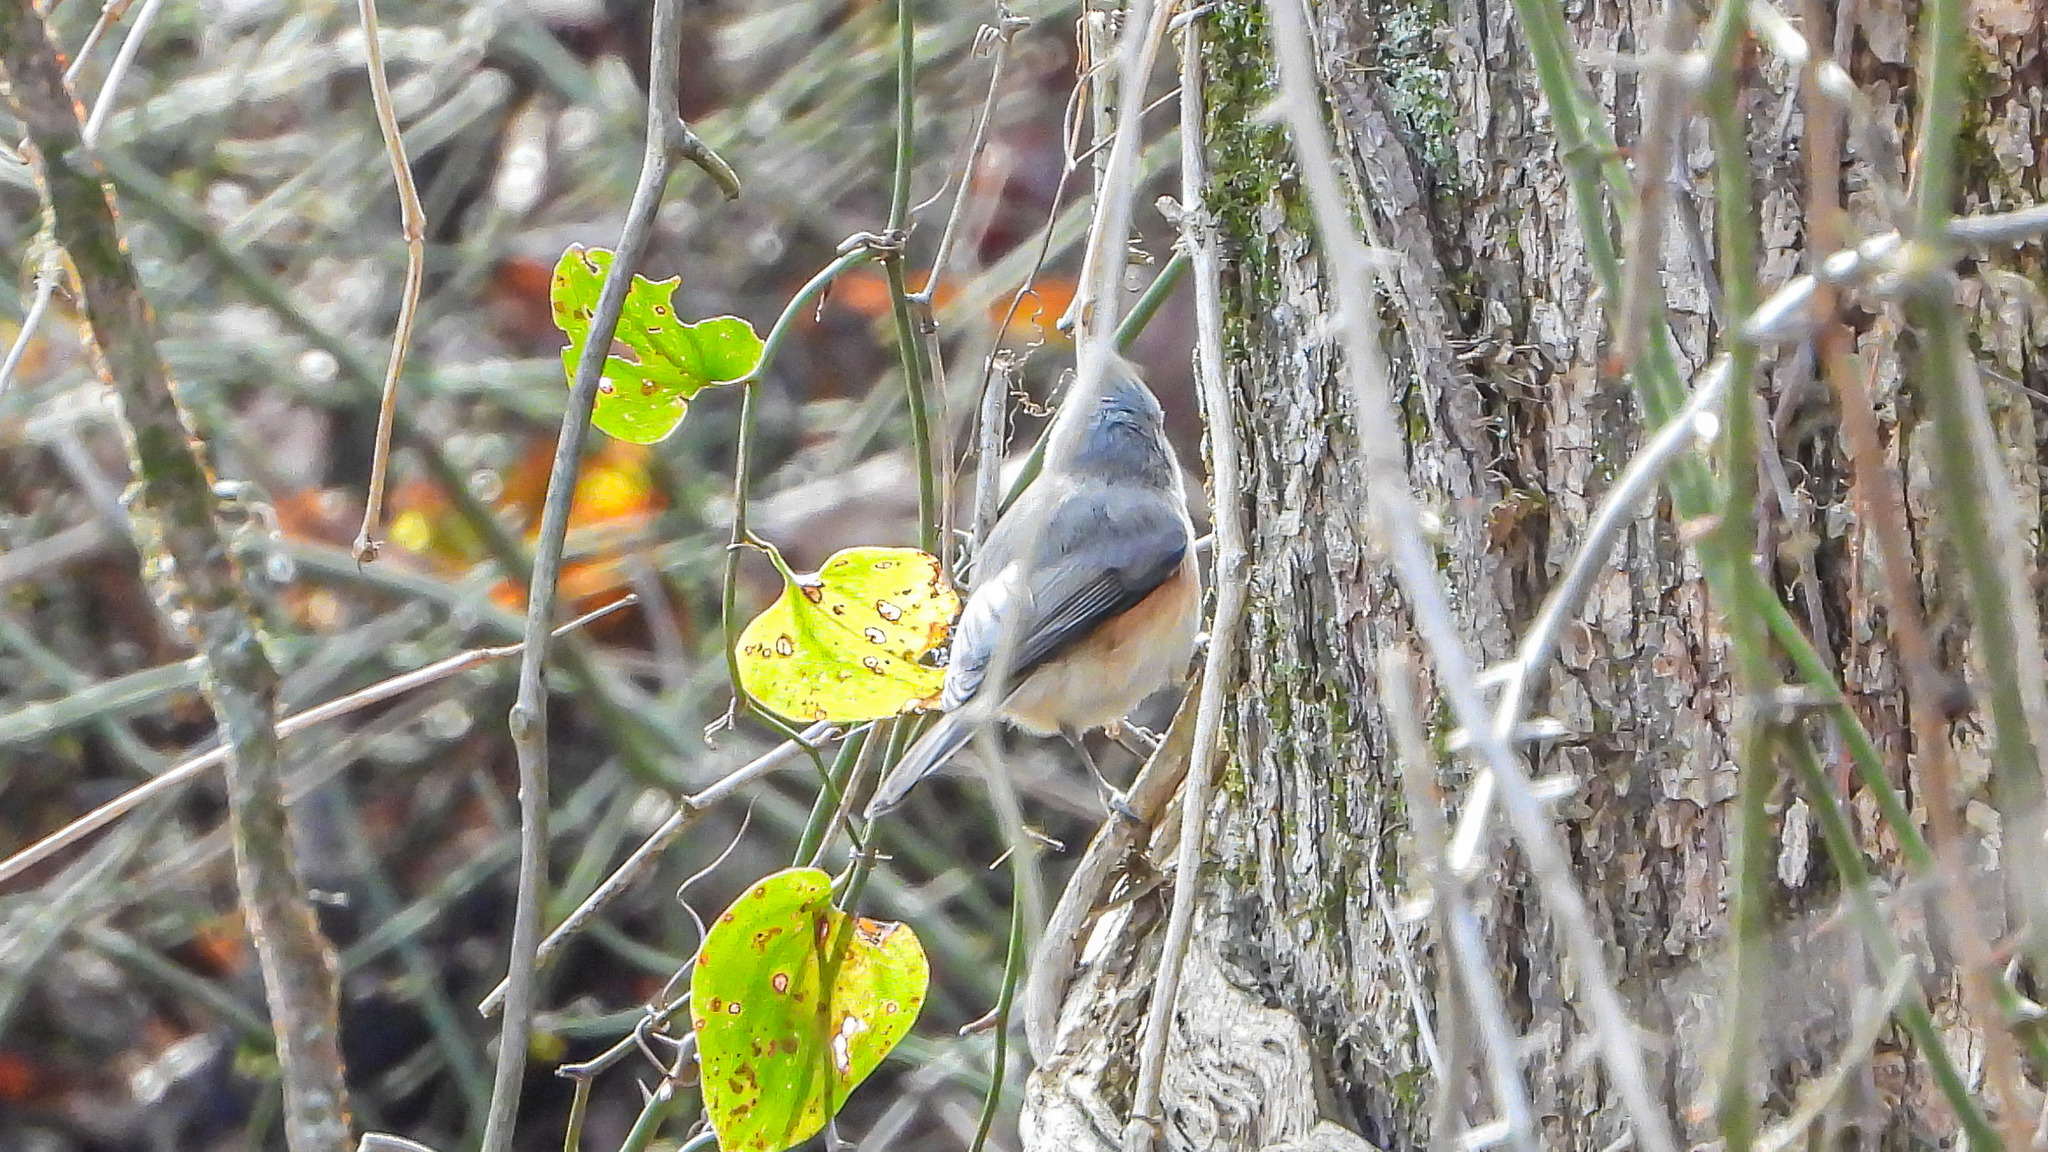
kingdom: Animalia
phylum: Chordata
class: Aves
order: Passeriformes
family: Paridae
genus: Baeolophus
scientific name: Baeolophus bicolor
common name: Tufted titmouse
